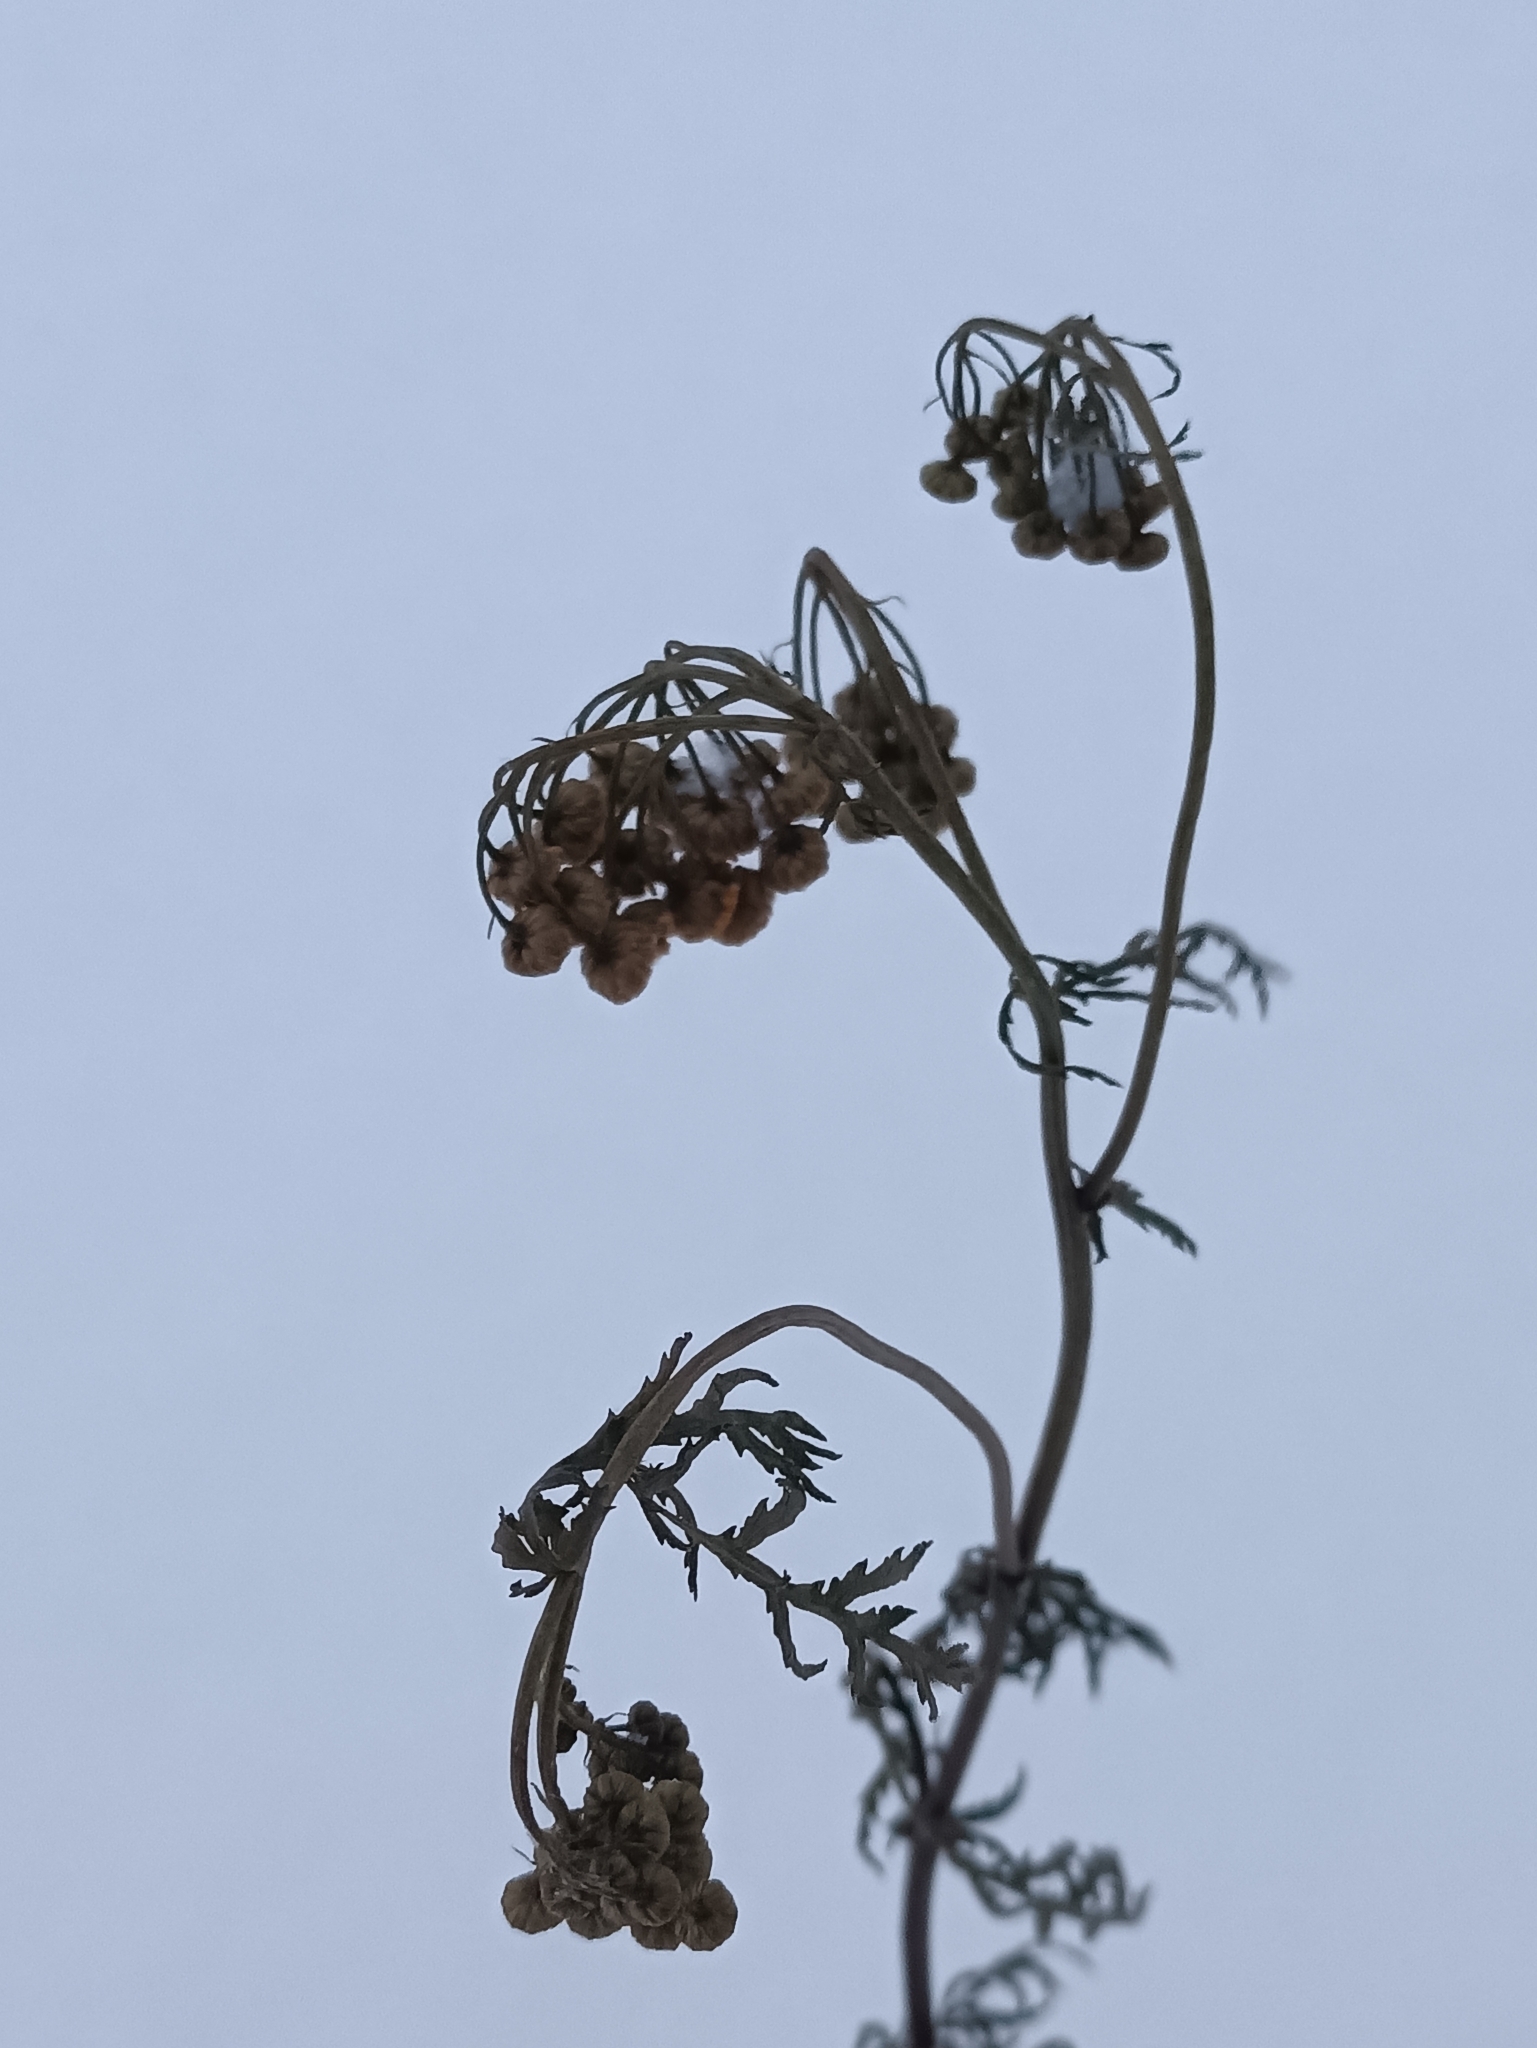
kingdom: Plantae
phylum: Tracheophyta
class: Magnoliopsida
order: Asterales
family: Asteraceae
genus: Tanacetum
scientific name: Tanacetum vulgare
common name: Common tansy
